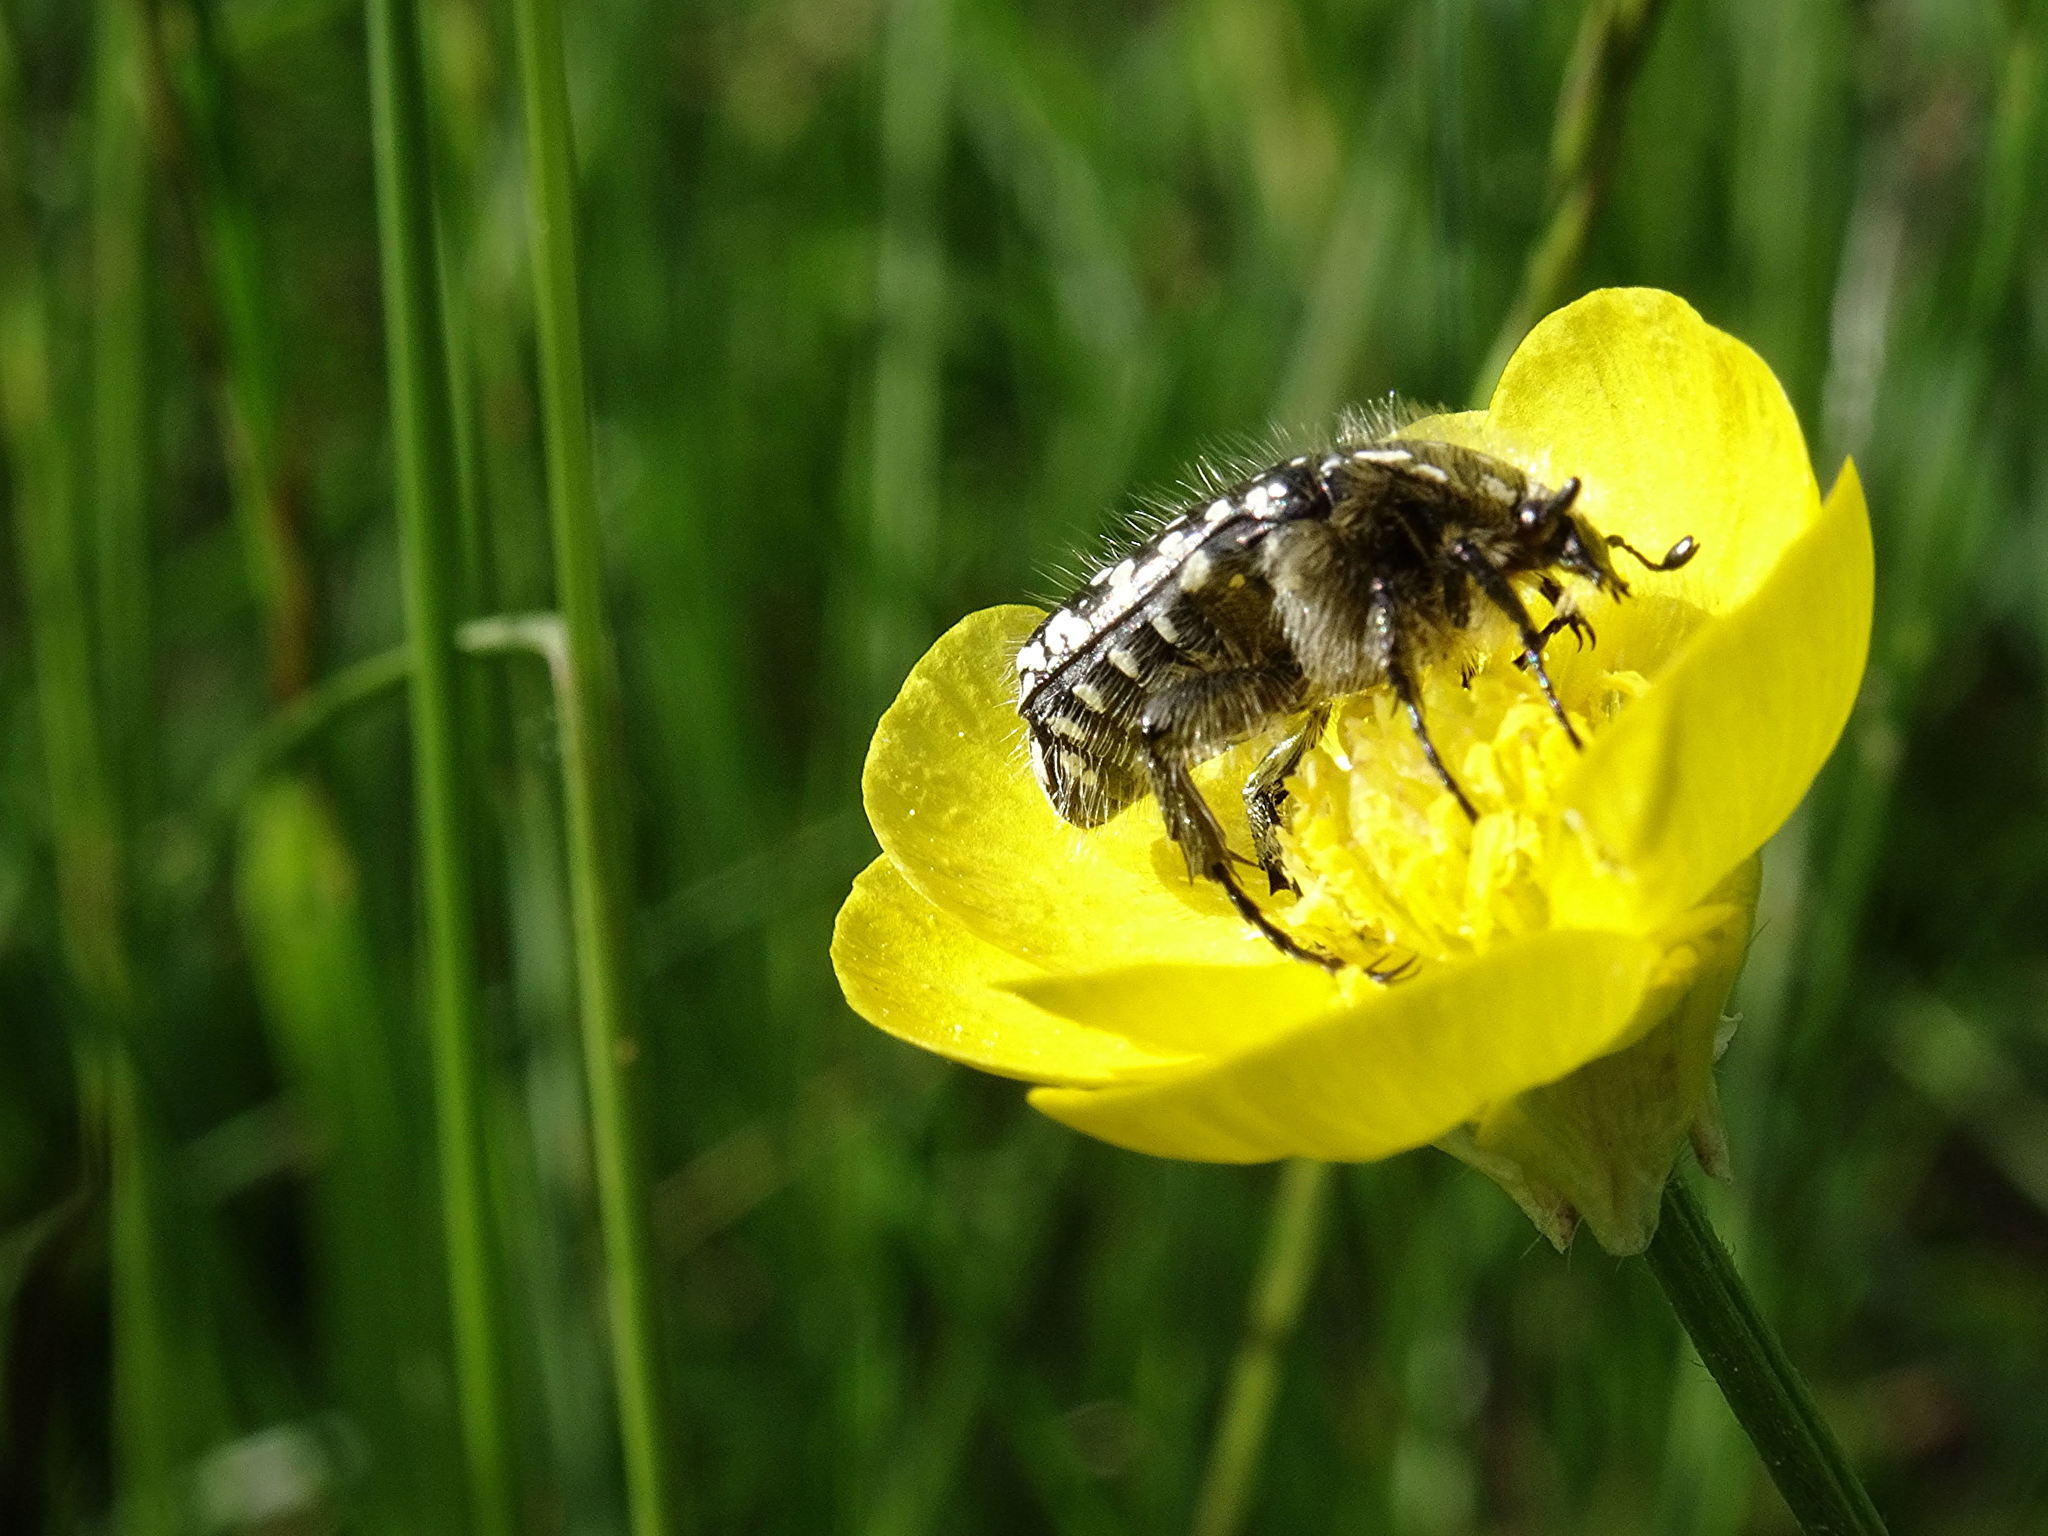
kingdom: Animalia
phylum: Arthropoda
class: Insecta
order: Coleoptera
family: Scarabaeidae
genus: Oxythyrea
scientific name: Oxythyrea funesta
